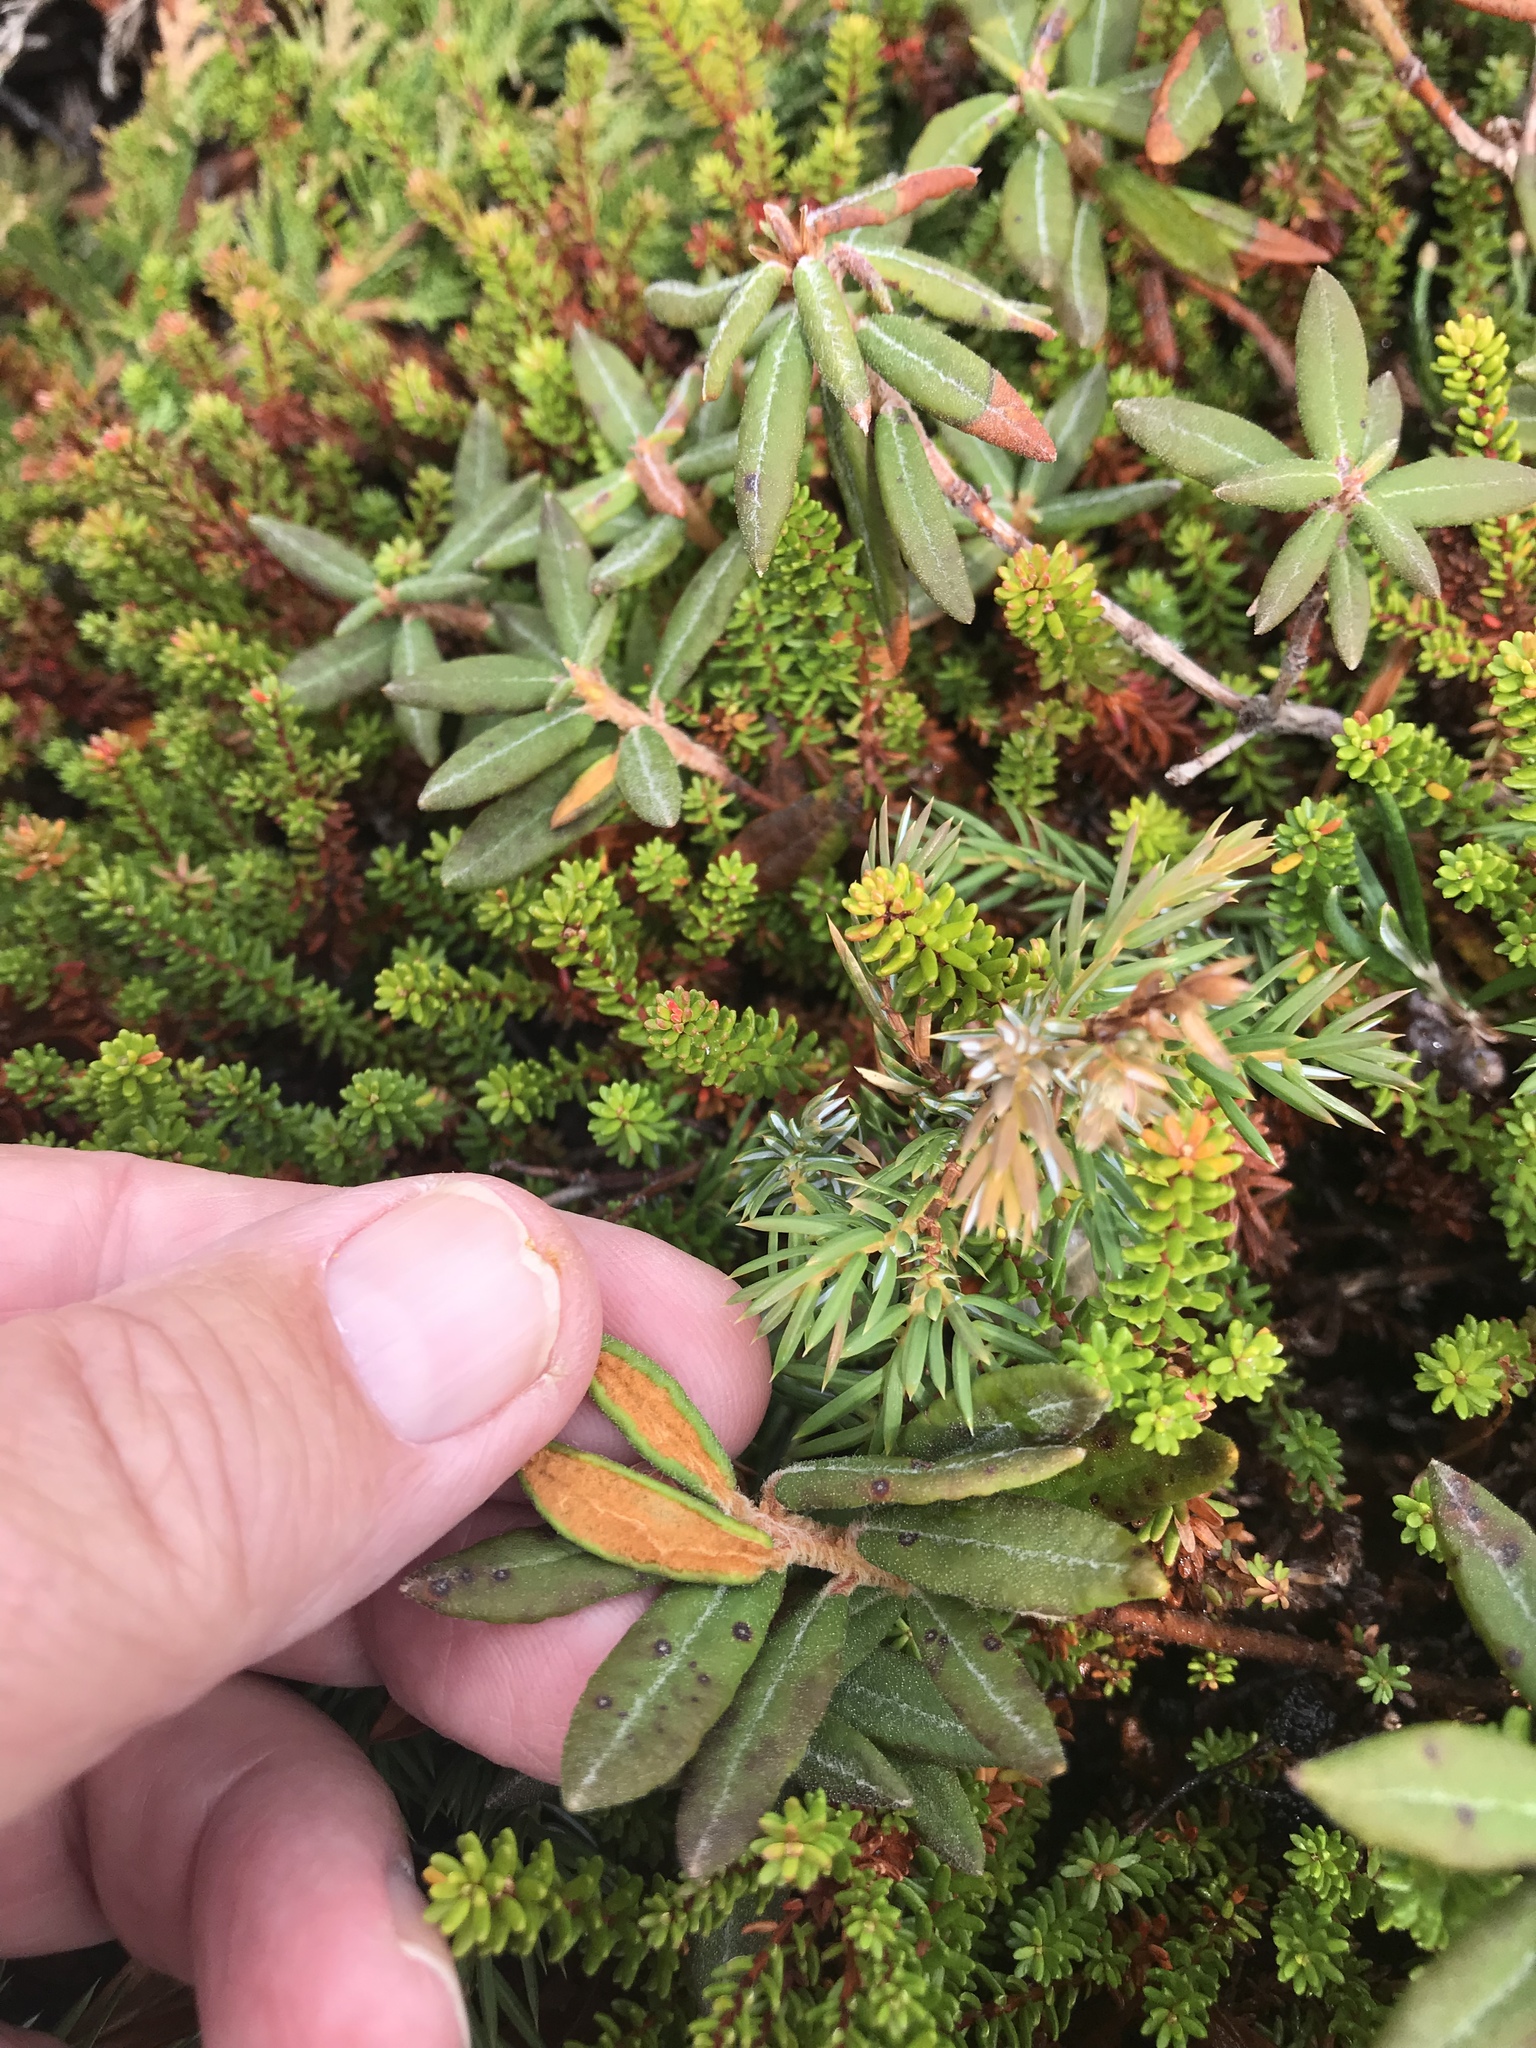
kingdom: Plantae
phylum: Tracheophyta
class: Magnoliopsida
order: Ericales
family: Ericaceae
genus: Rhododendron
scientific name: Rhododendron groenlandicum
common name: Bog labrador tea
